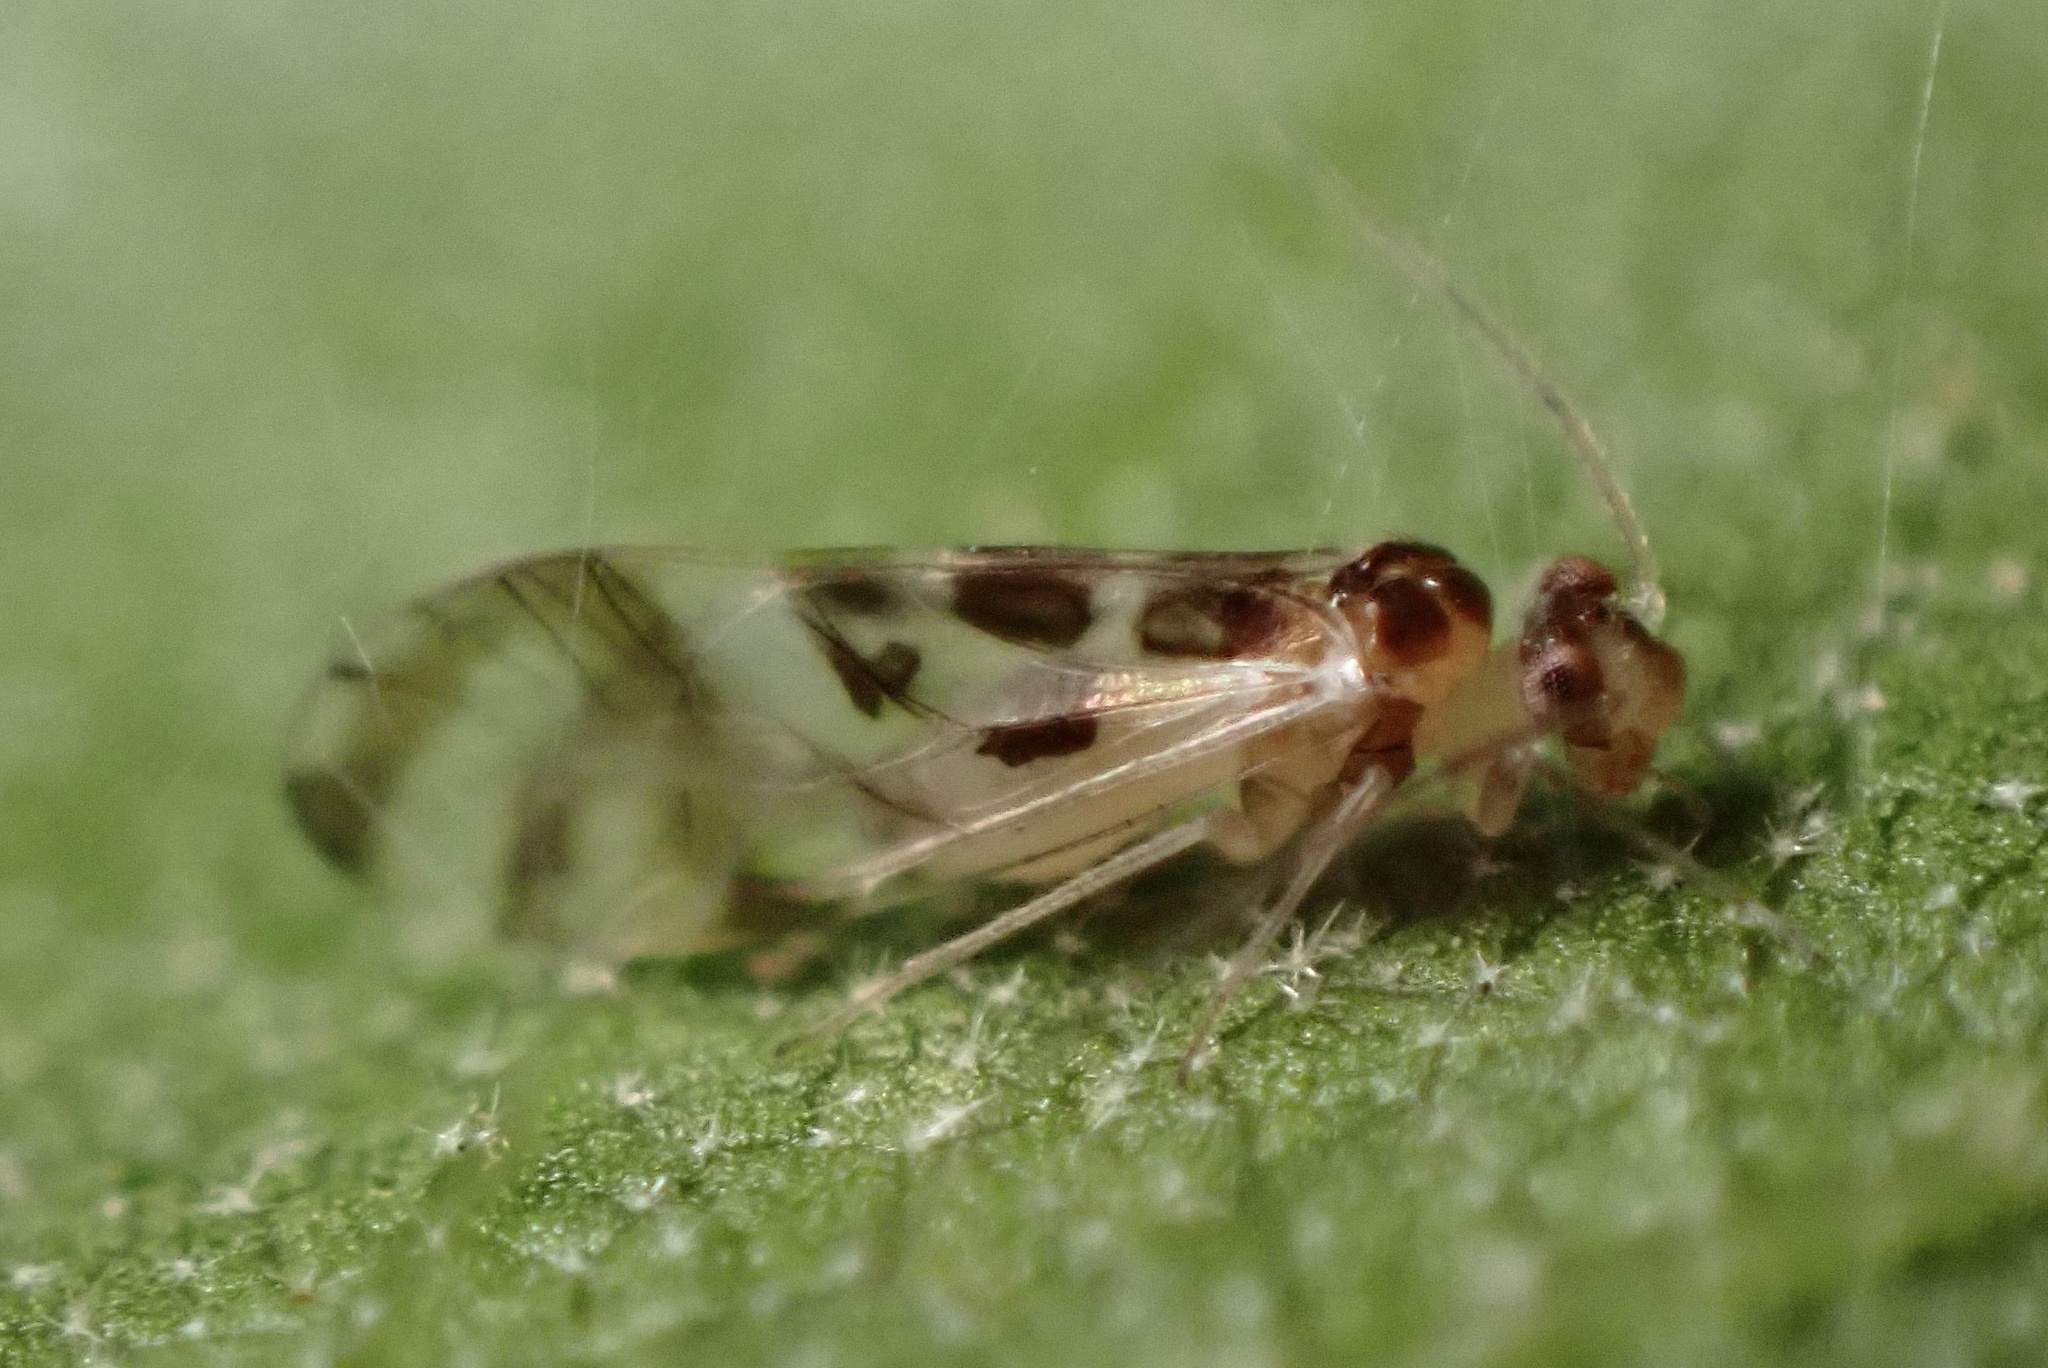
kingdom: Animalia
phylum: Arthropoda
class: Insecta
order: Psocodea
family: Stenopsocidae
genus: Graphopsocus
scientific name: Graphopsocus cruciatus
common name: Lizard bark louse
